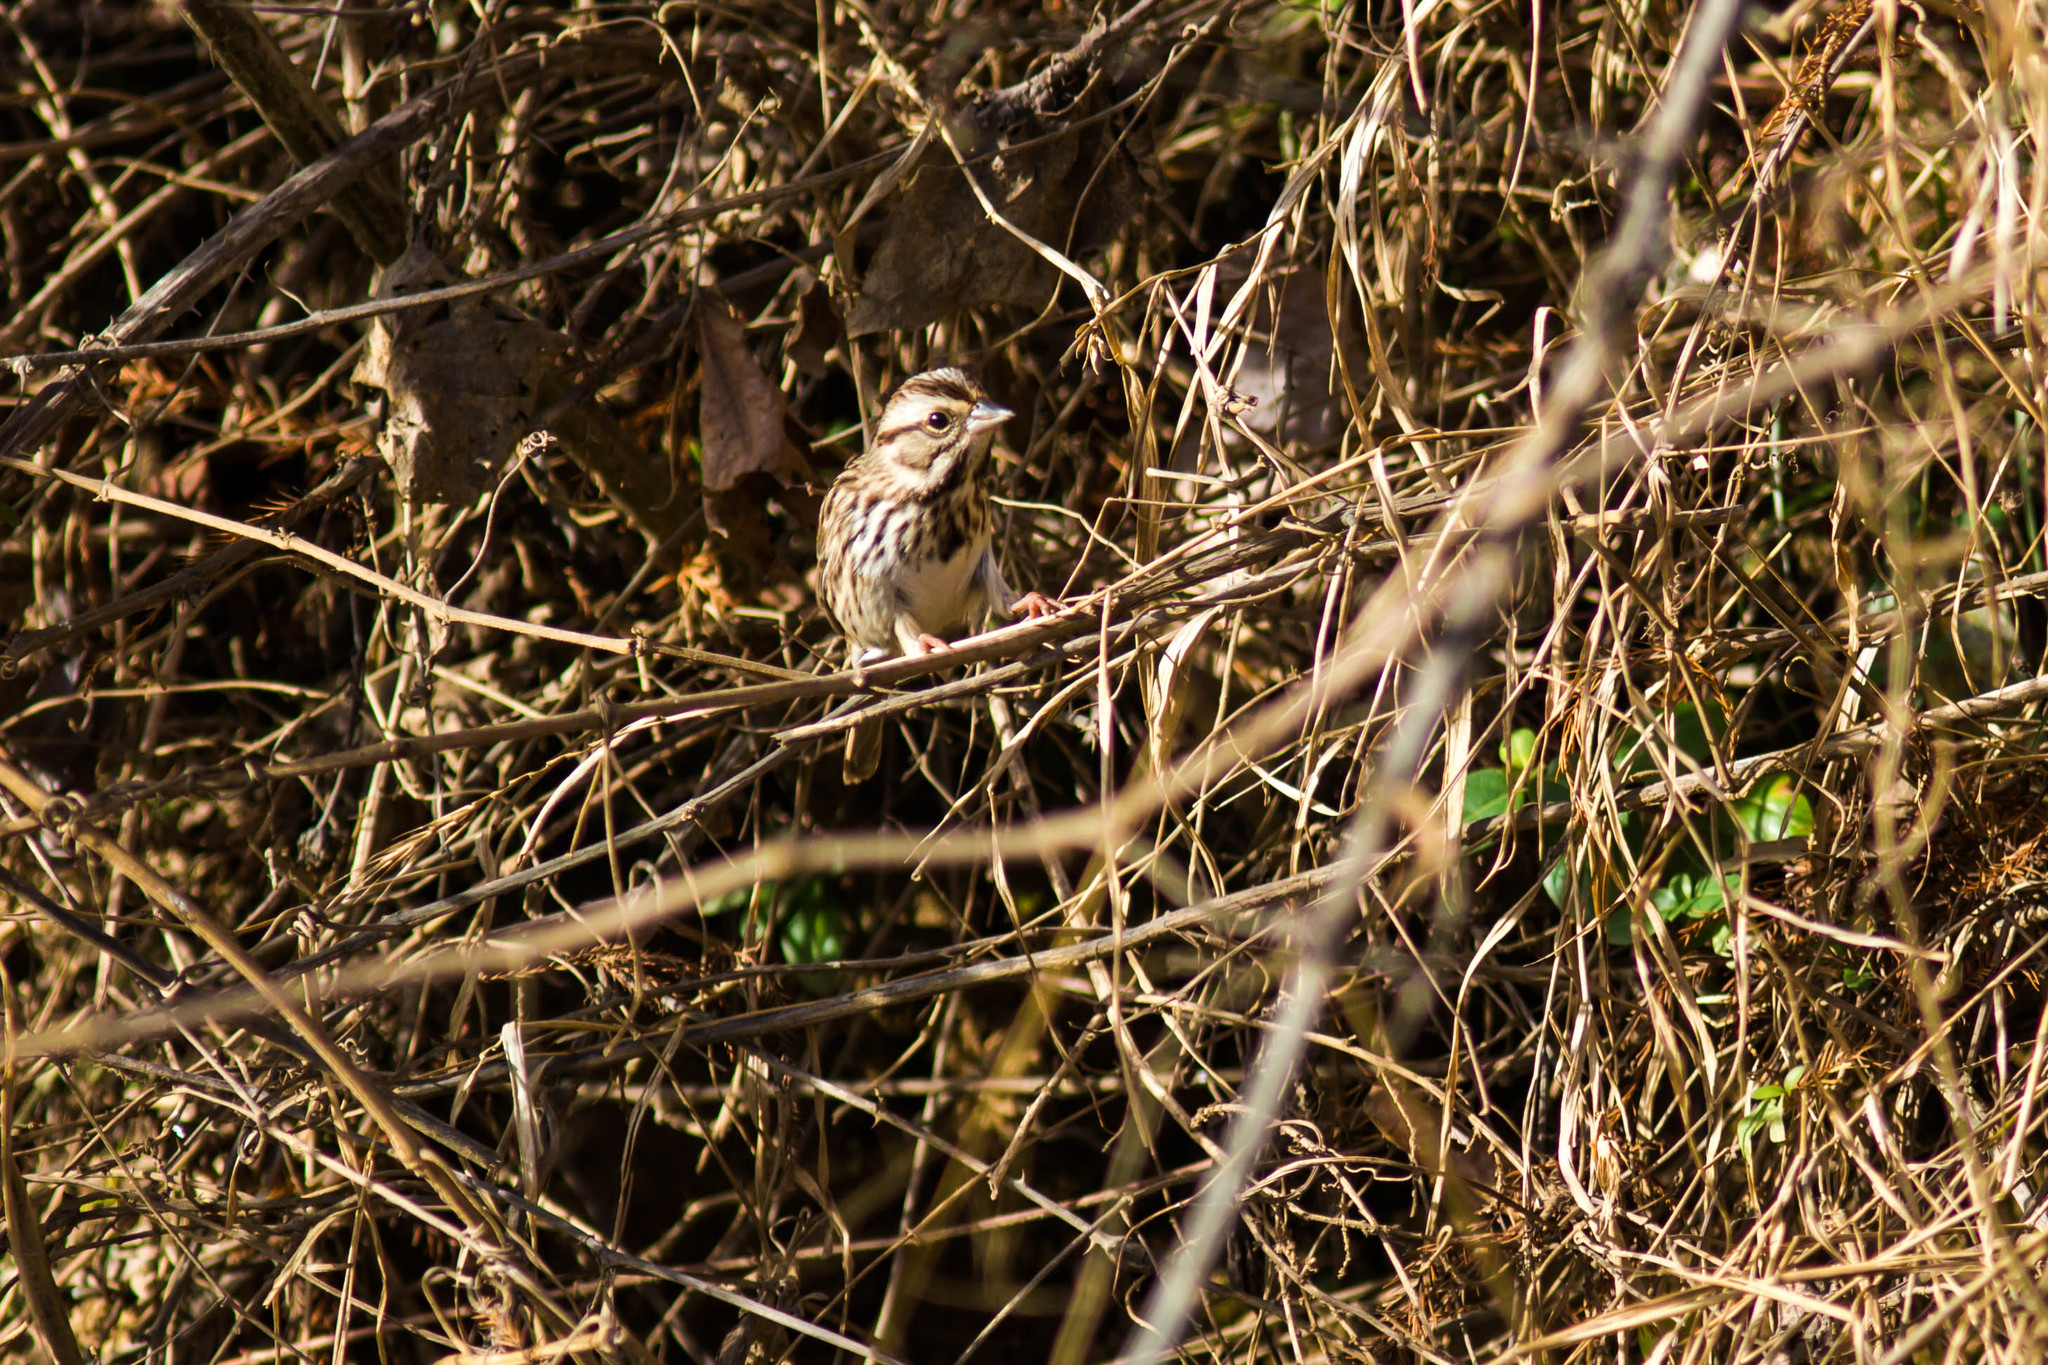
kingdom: Animalia
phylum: Chordata
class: Aves
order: Passeriformes
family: Passerellidae
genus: Melospiza
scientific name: Melospiza melodia
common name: Song sparrow
